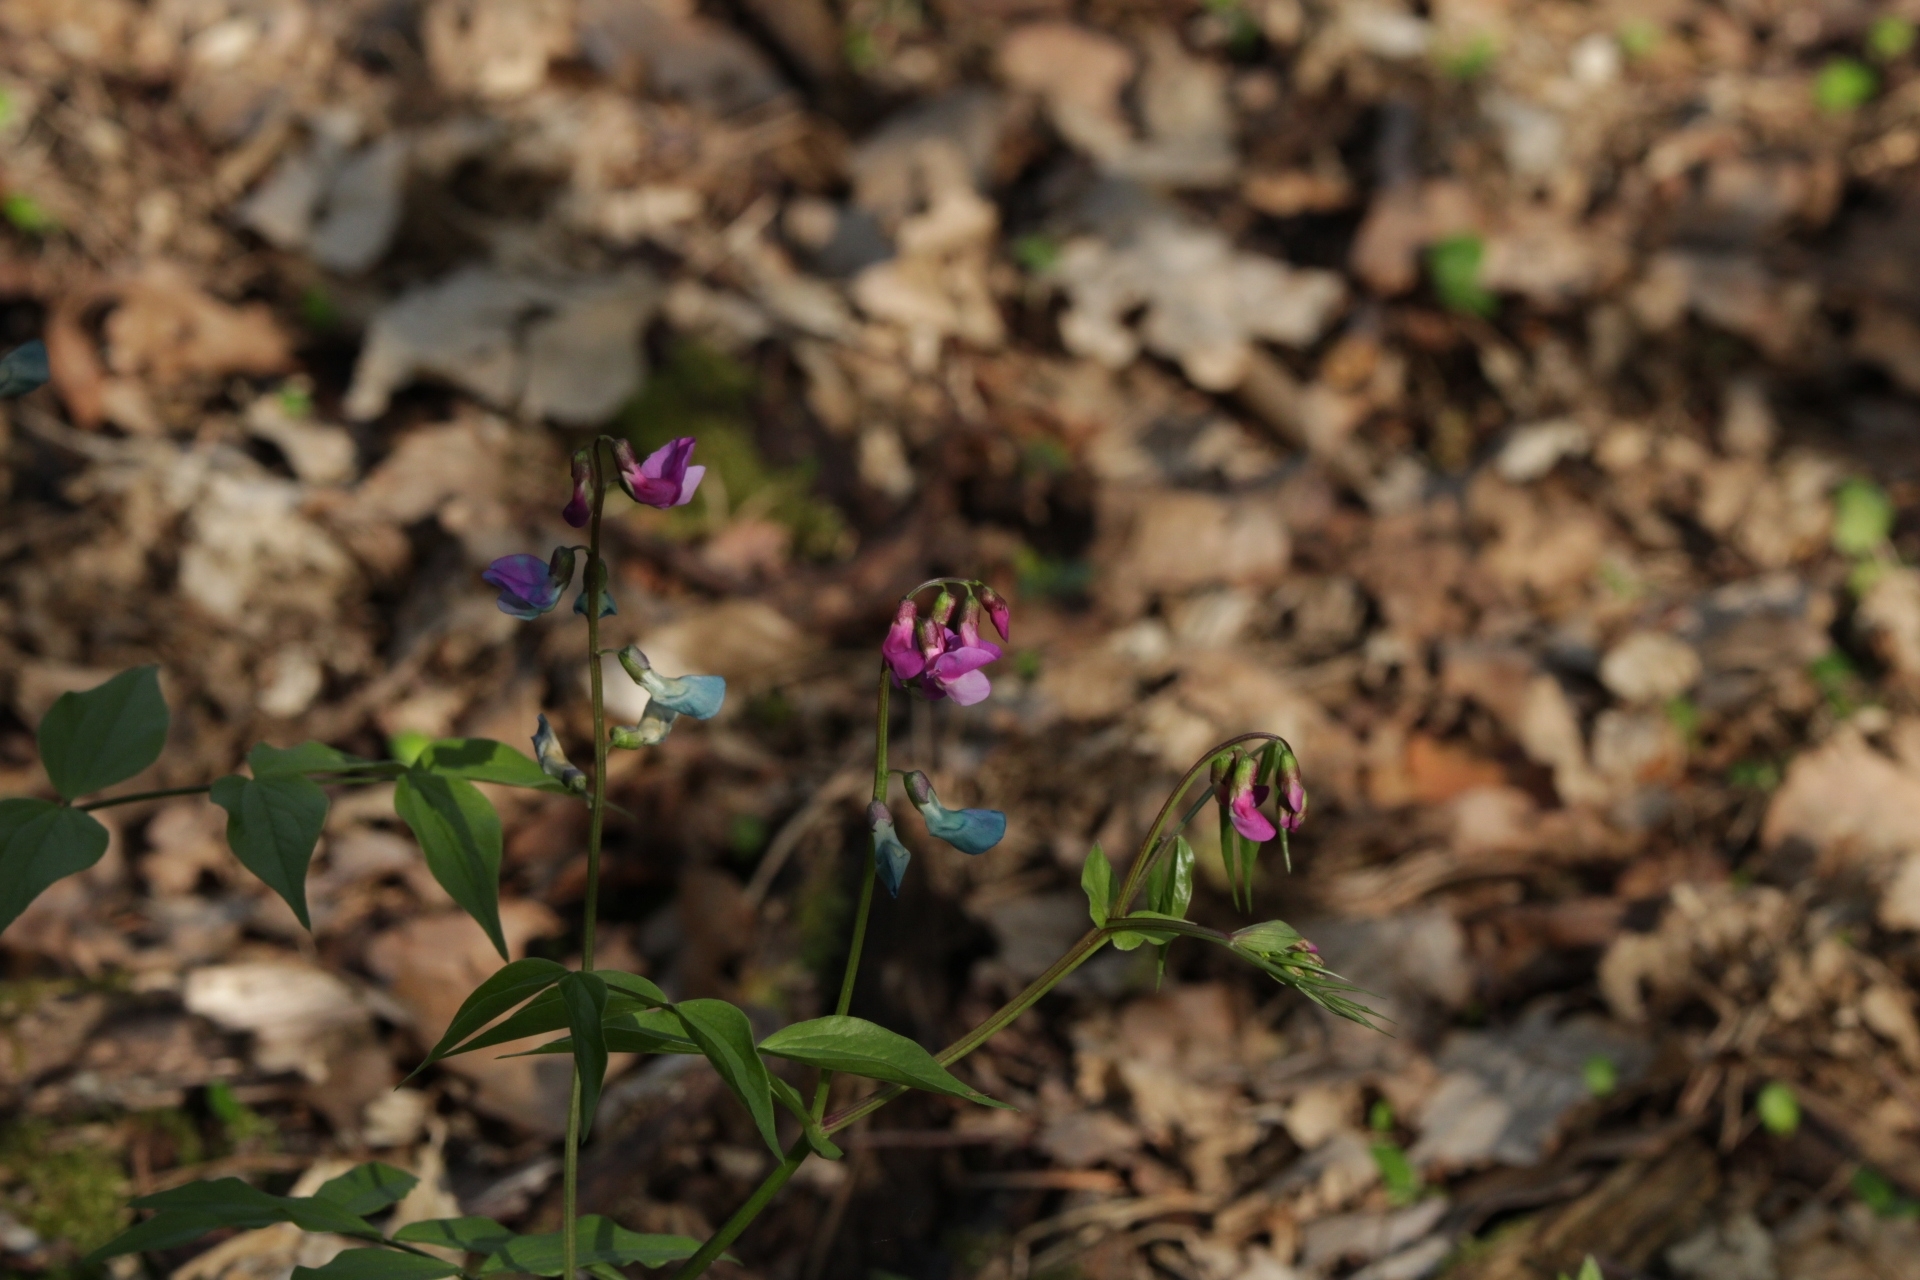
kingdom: Plantae
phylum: Tracheophyta
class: Magnoliopsida
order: Fabales
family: Fabaceae
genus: Lathyrus
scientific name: Lathyrus vernus
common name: Spring pea
